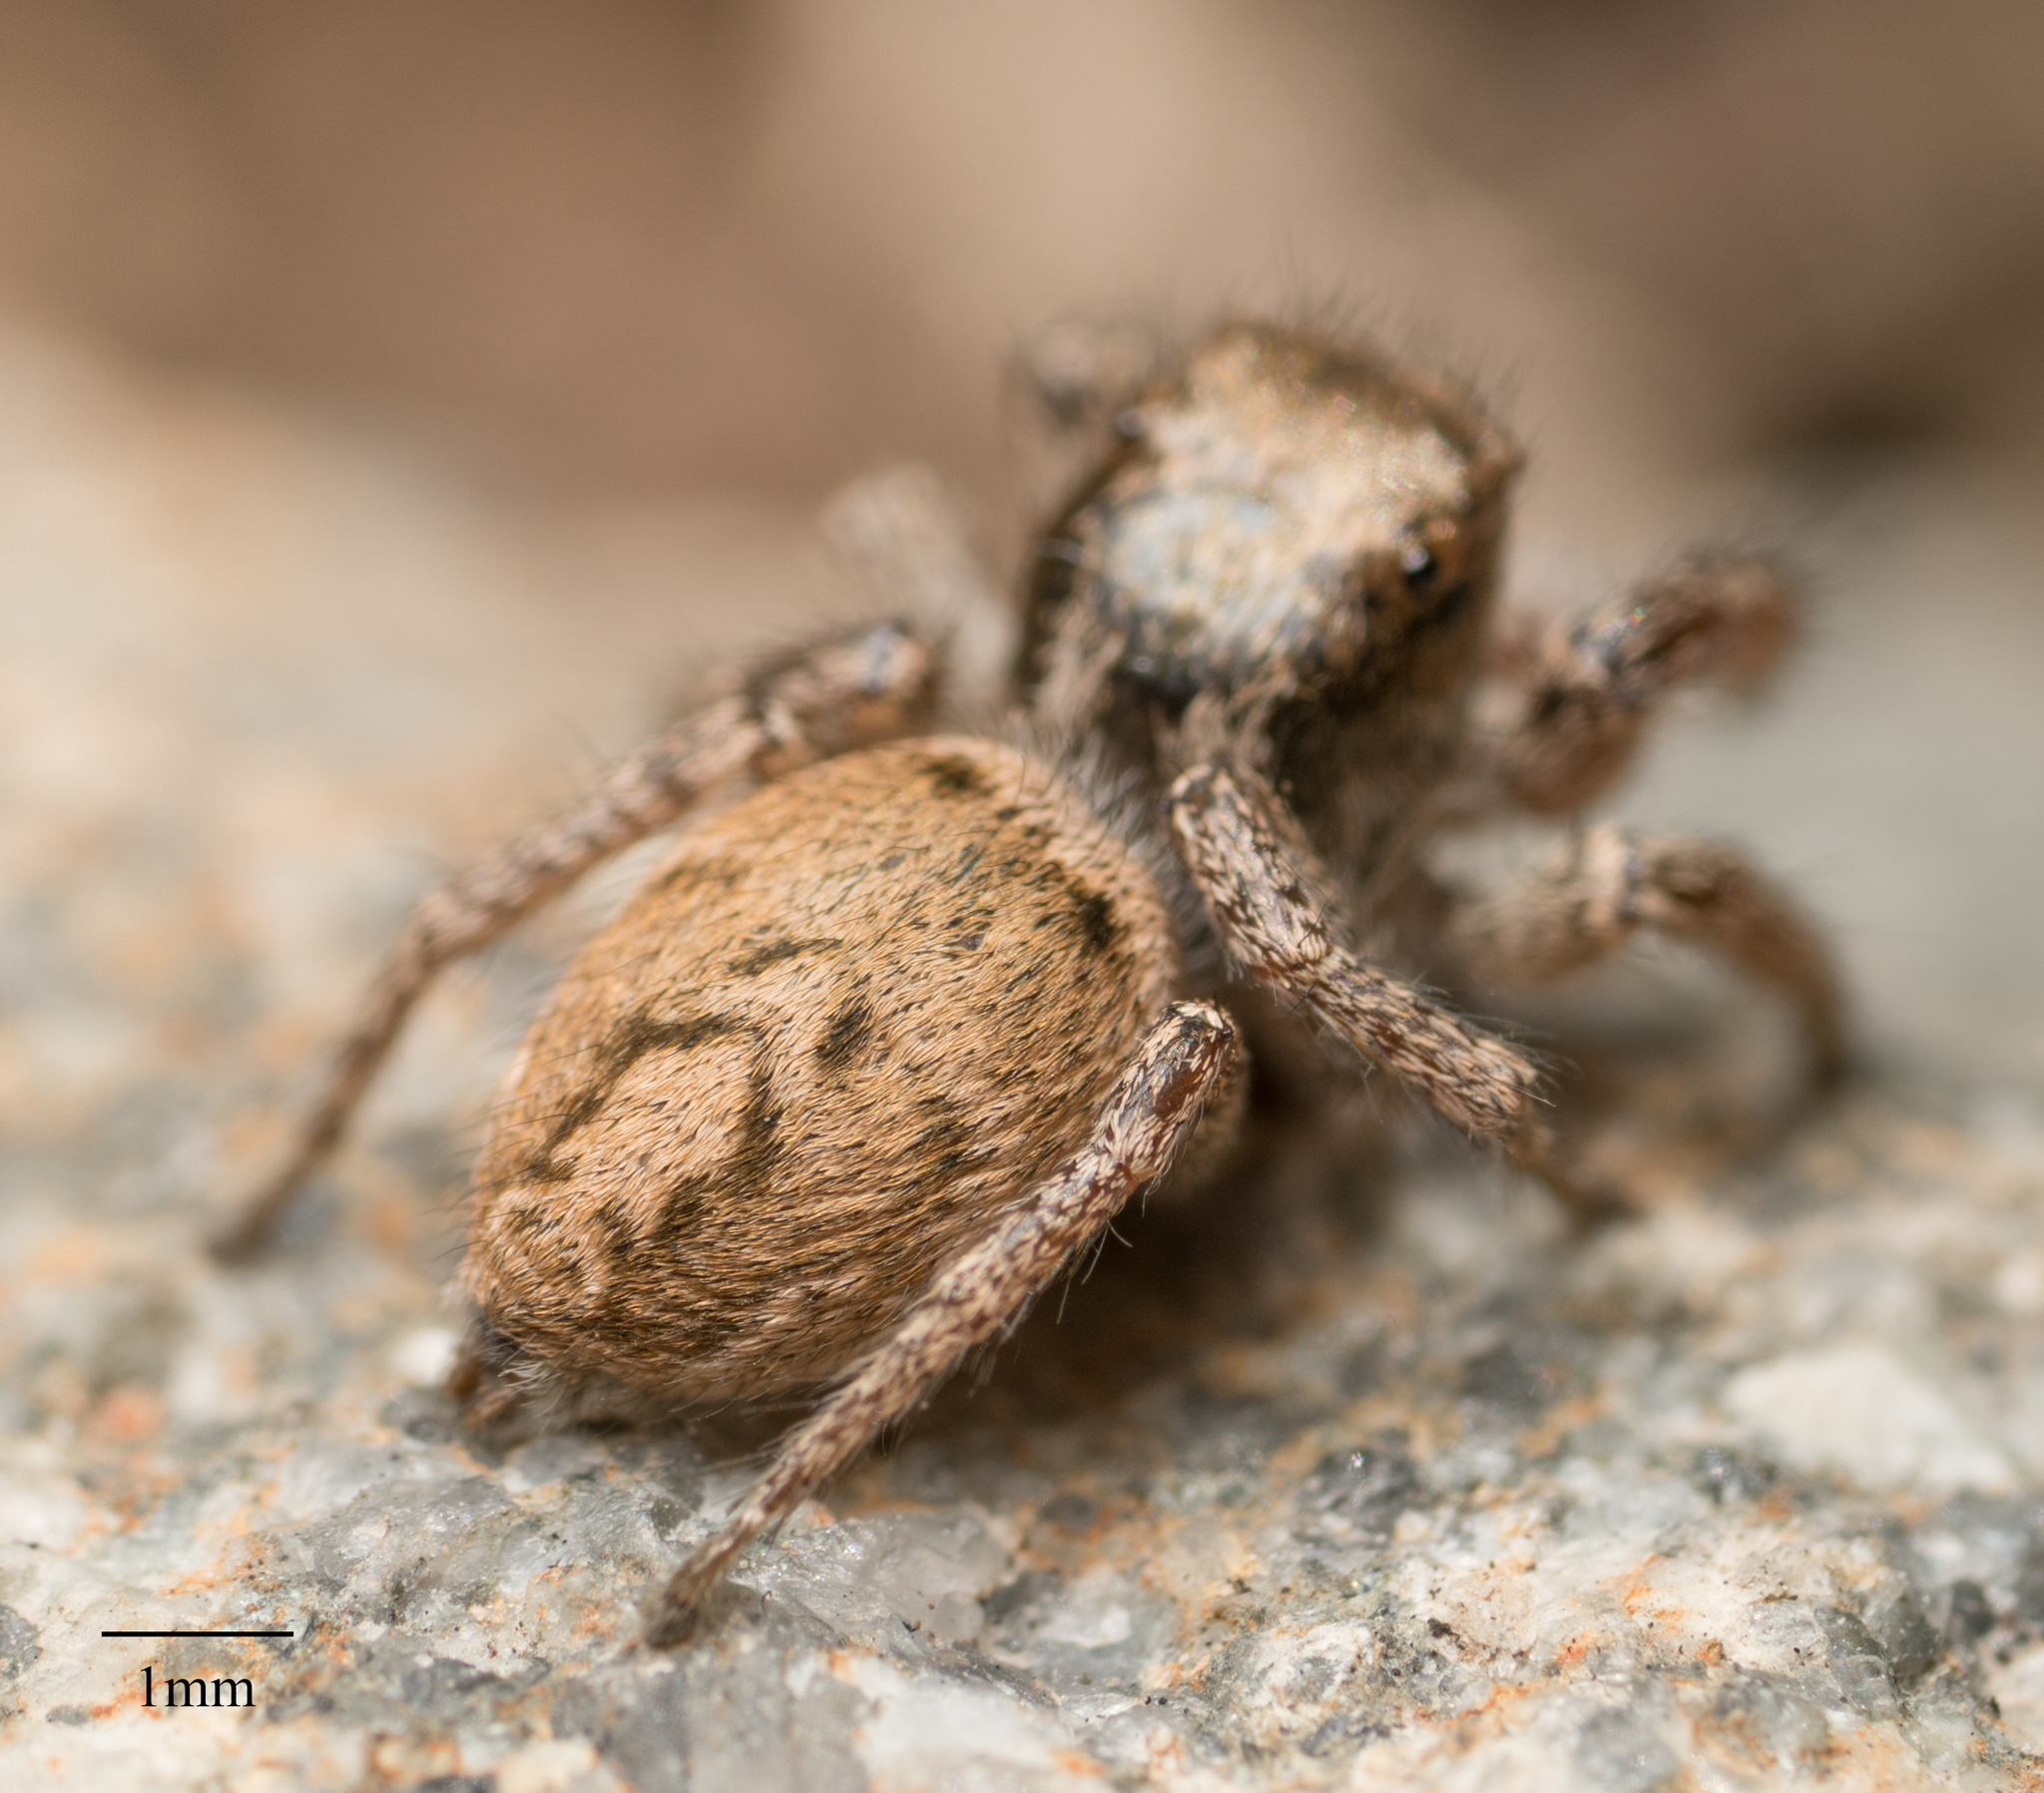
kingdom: Animalia
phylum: Arthropoda
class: Arachnida
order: Araneae
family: Salticidae
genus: Habronattus
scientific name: Habronattus pyrrithrix
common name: Jumping spider
